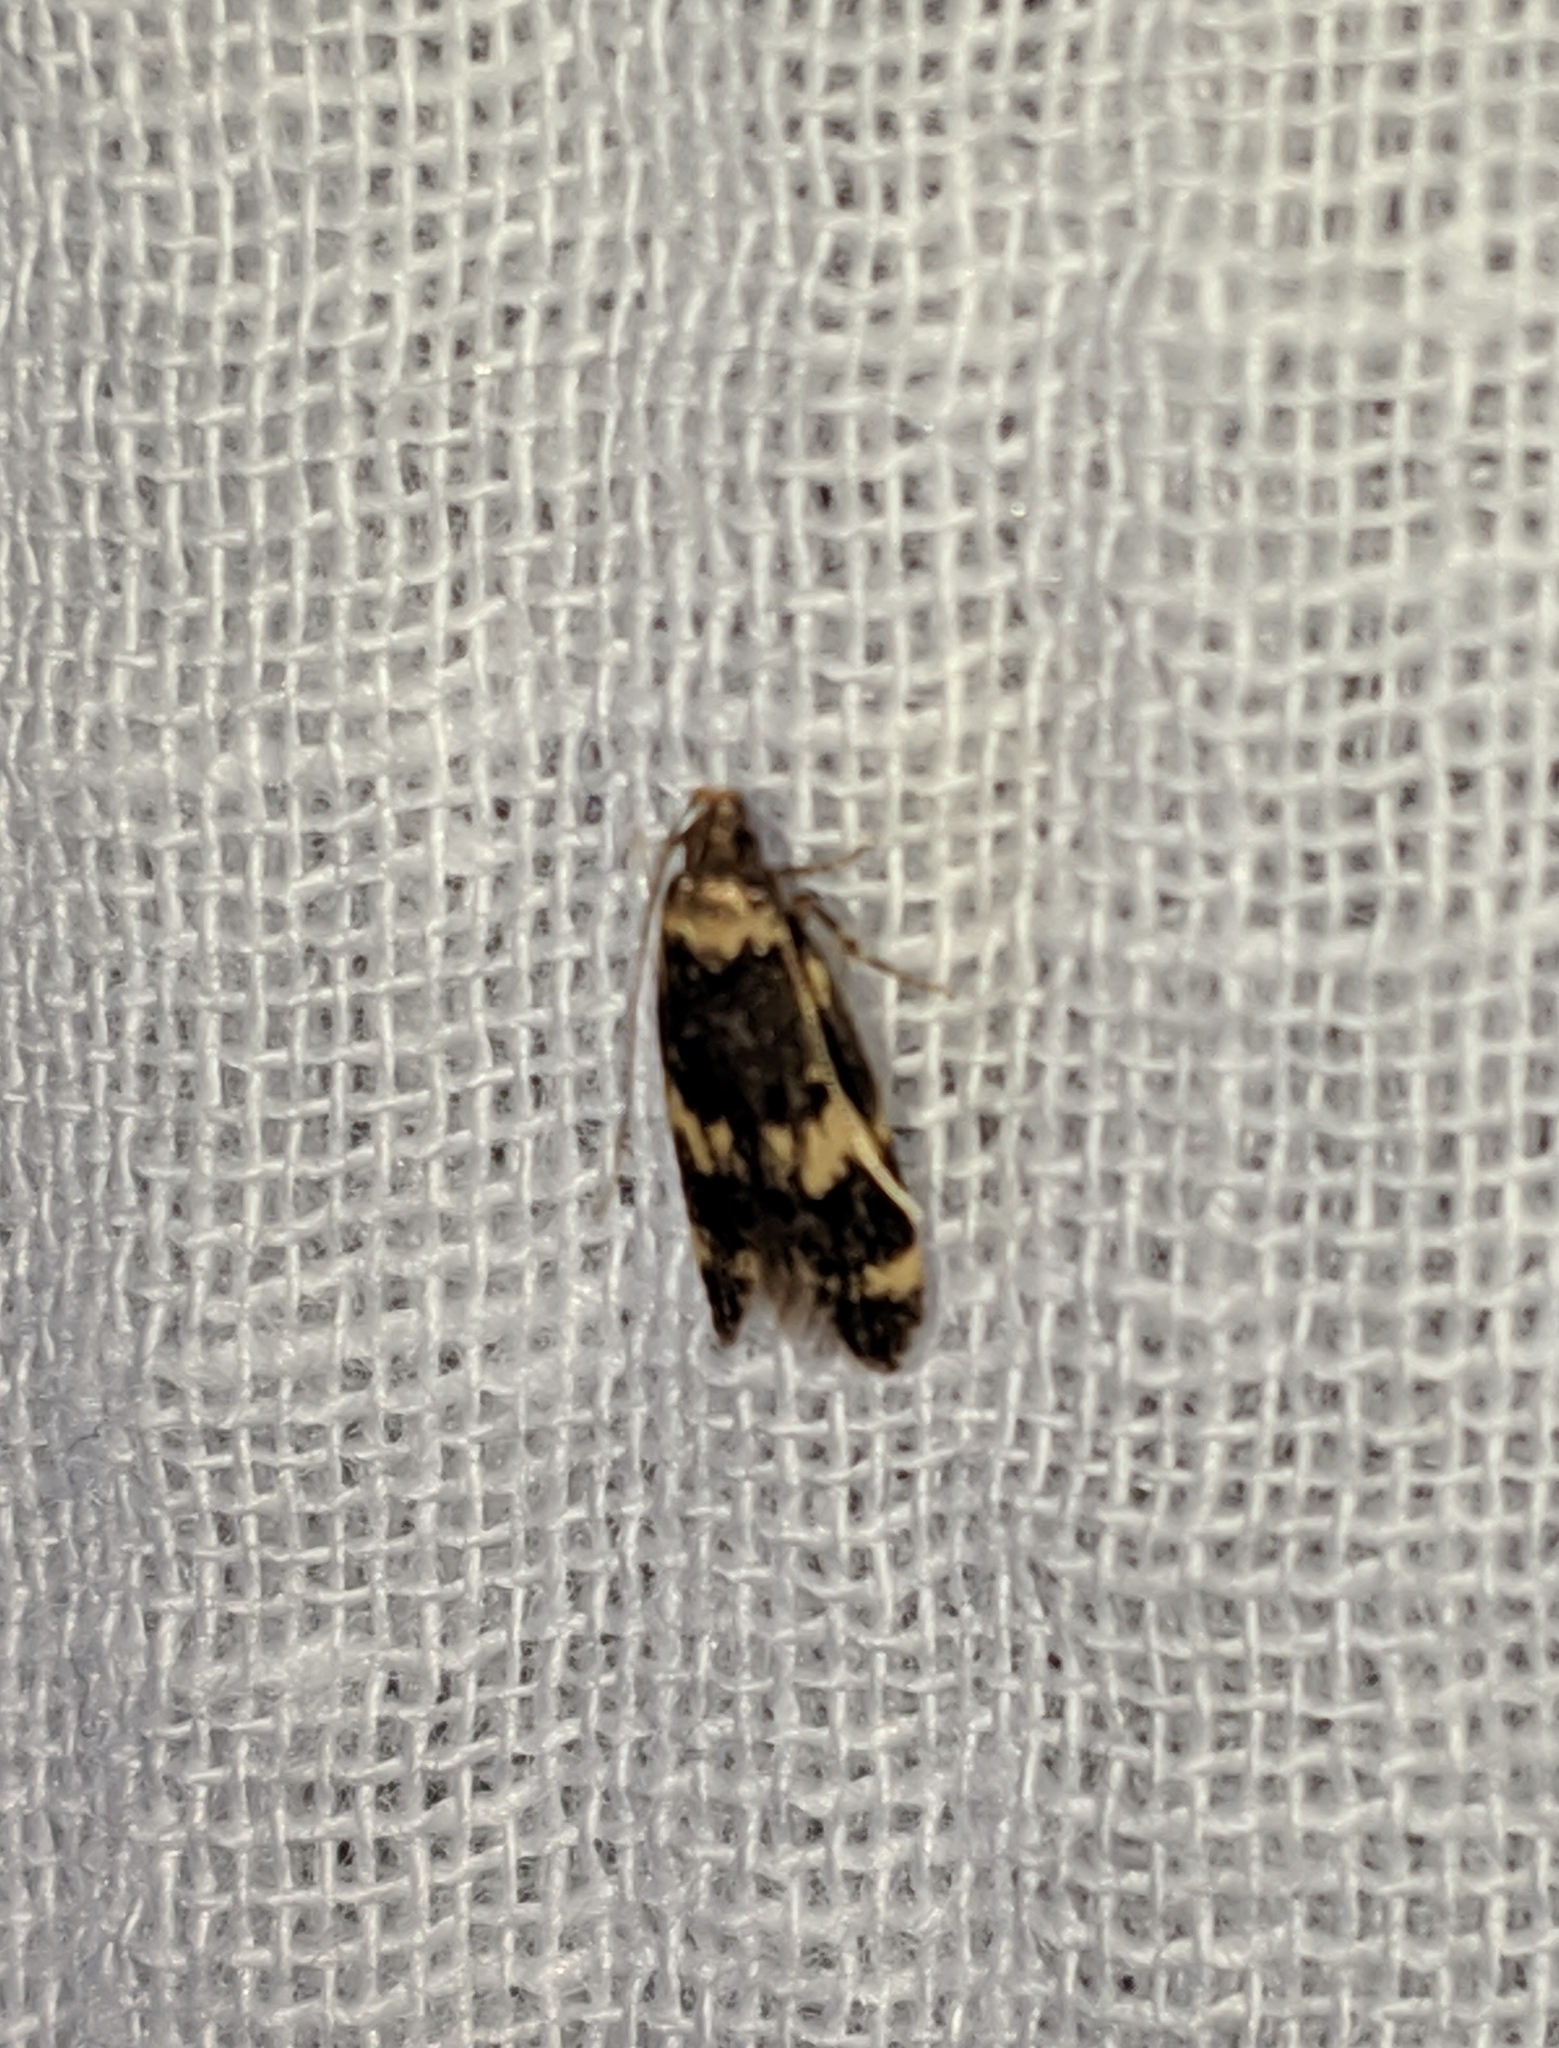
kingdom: Animalia
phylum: Arthropoda
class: Insecta
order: Lepidoptera
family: Autostichidae
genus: Oegoconia
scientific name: Oegoconia quadripuncta
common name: Four-spotted obscure
